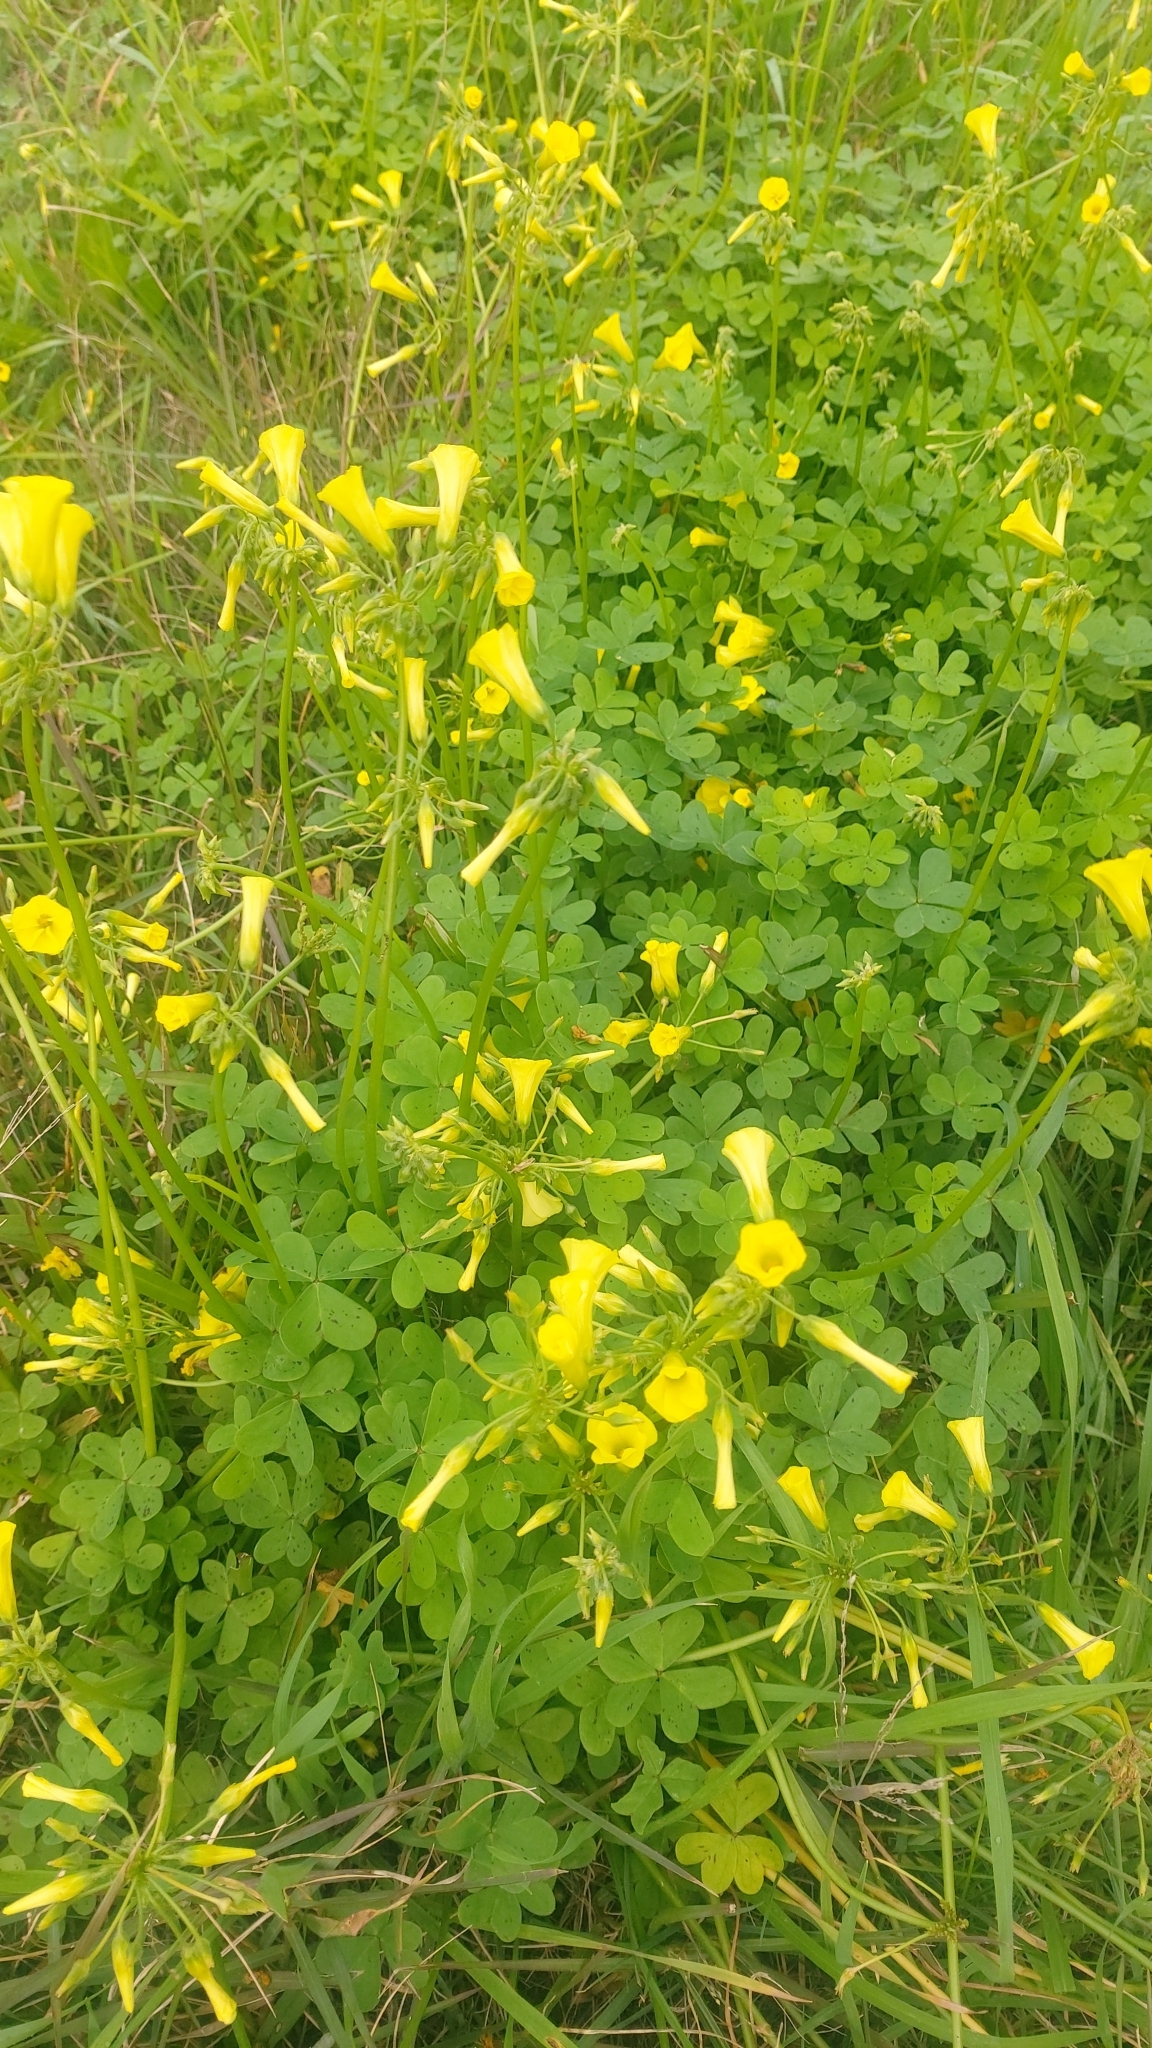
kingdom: Plantae
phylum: Tracheophyta
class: Magnoliopsida
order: Oxalidales
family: Oxalidaceae
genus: Oxalis
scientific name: Oxalis pes-caprae
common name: Bermuda-buttercup
